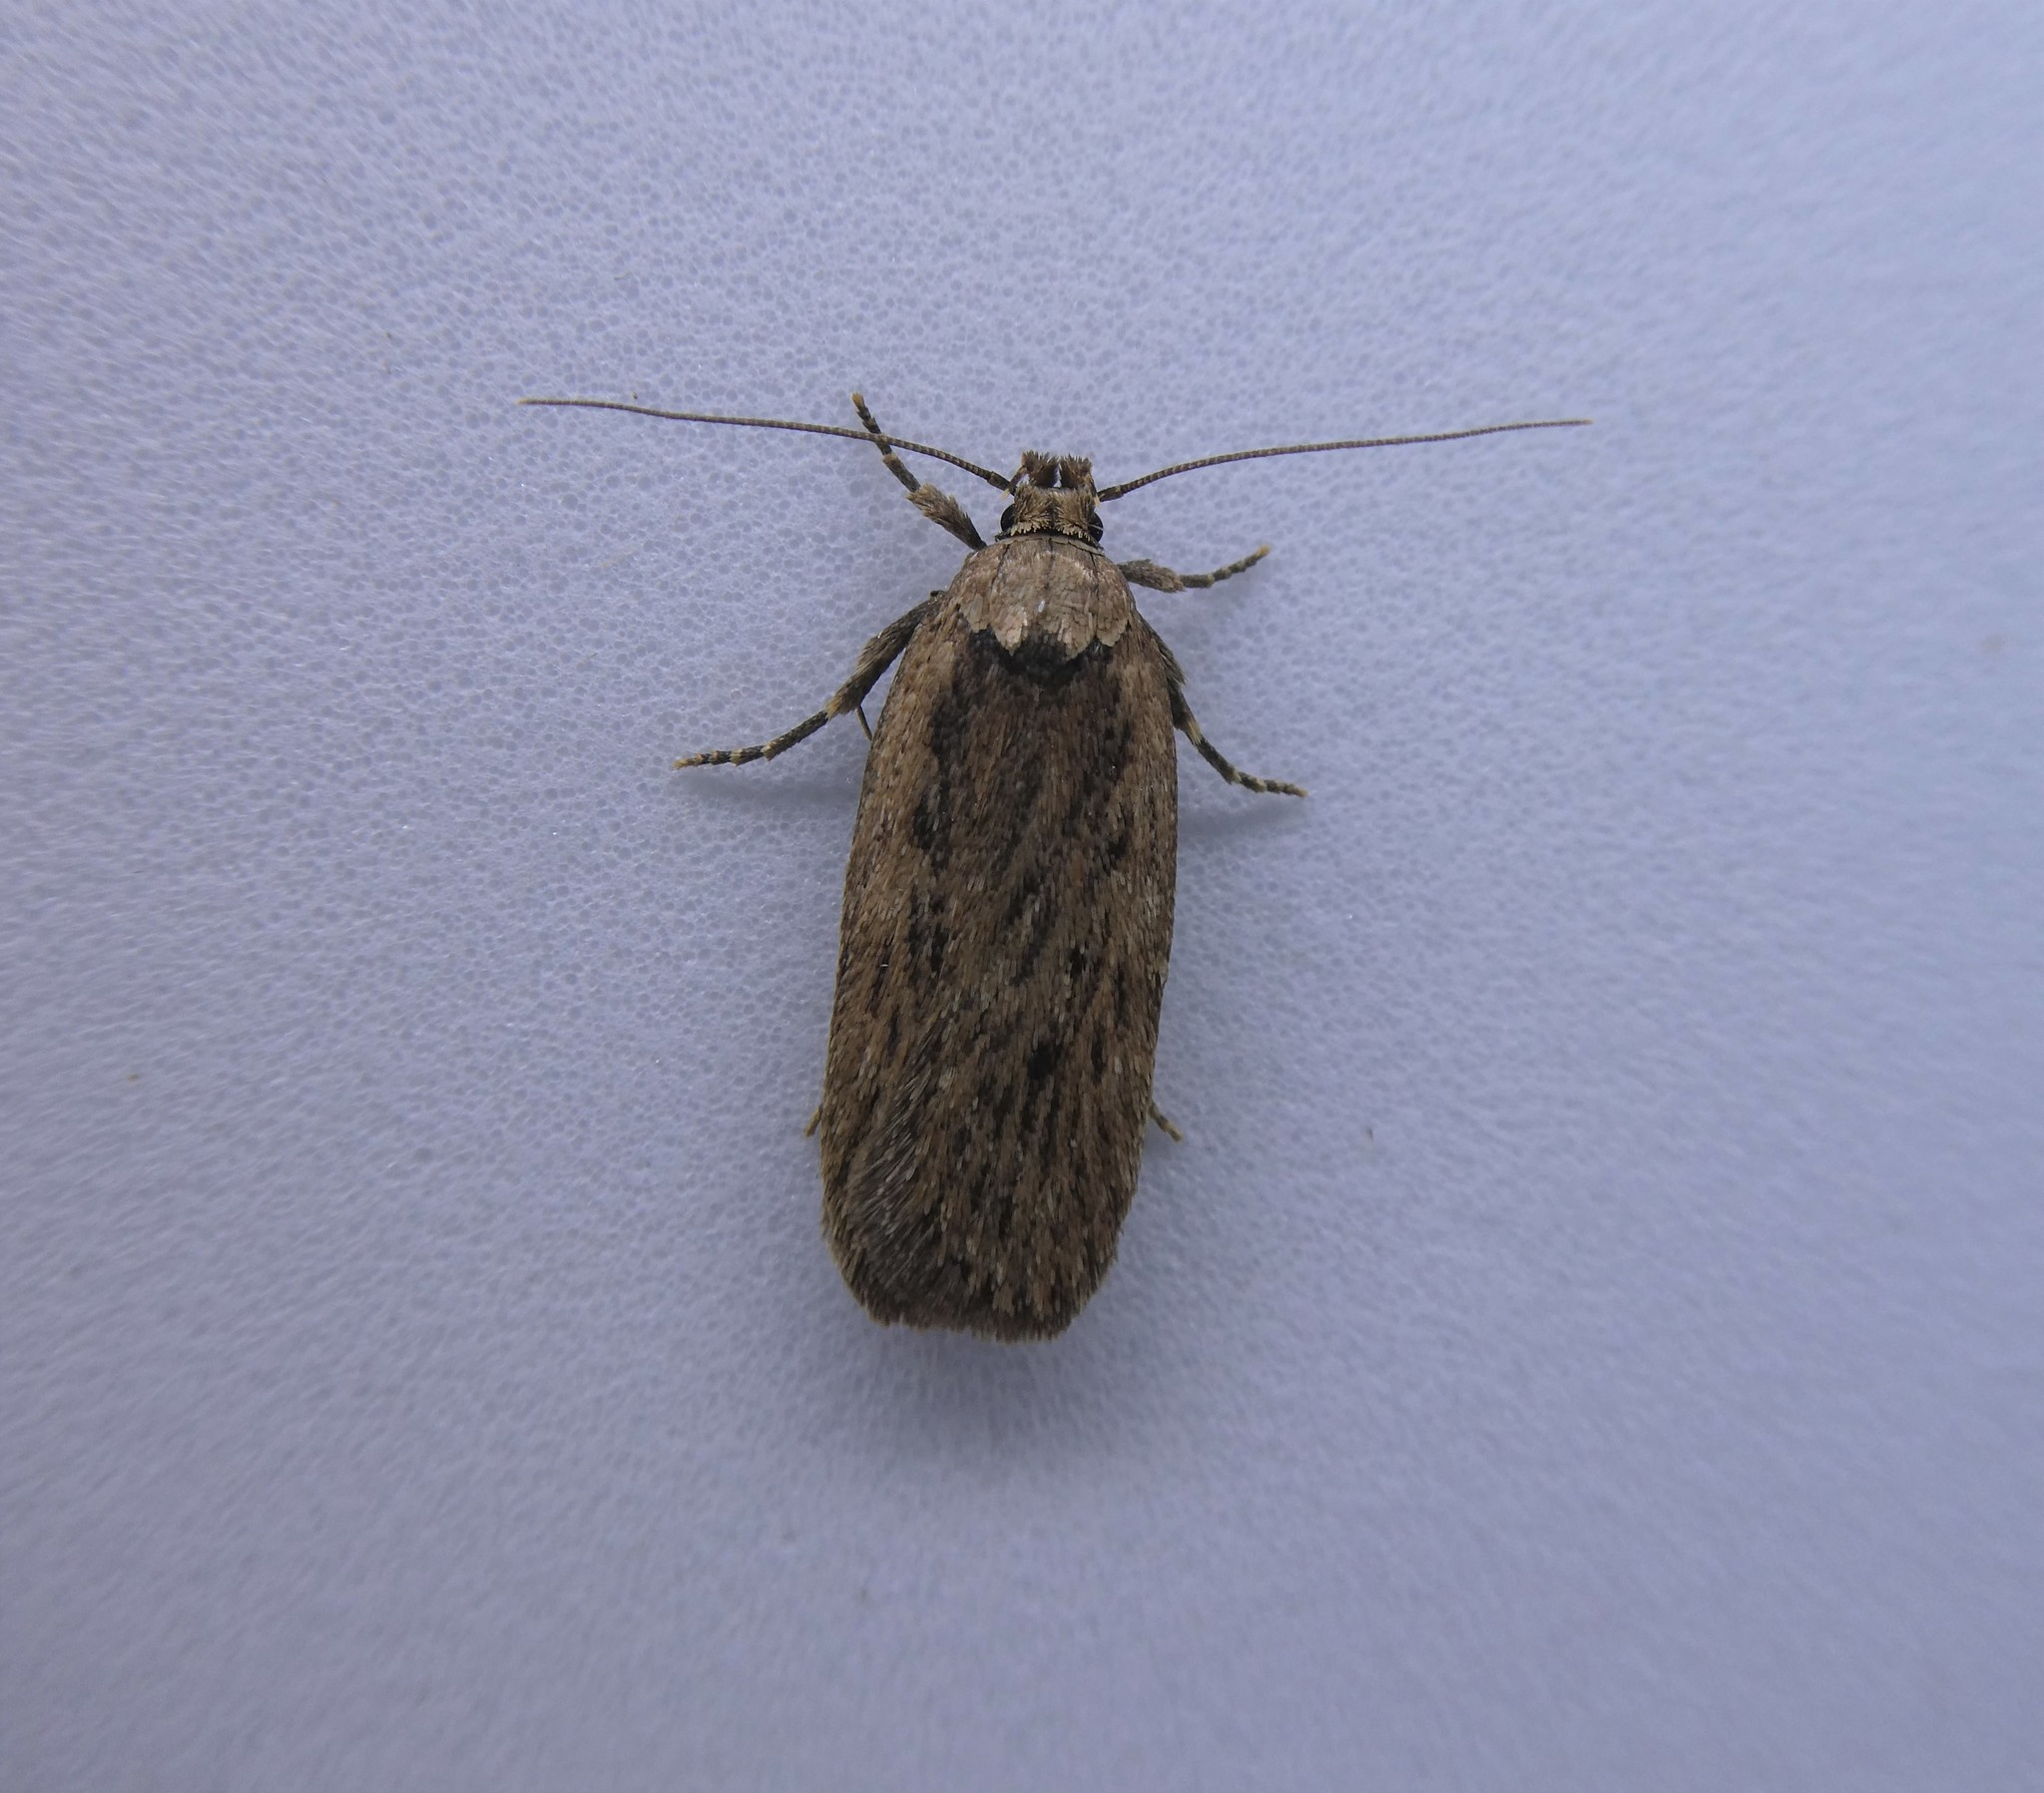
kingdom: Animalia
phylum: Arthropoda
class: Insecta
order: Lepidoptera
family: Depressariidae
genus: Depressaria
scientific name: Depressaria radiella
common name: Parsnip moth
